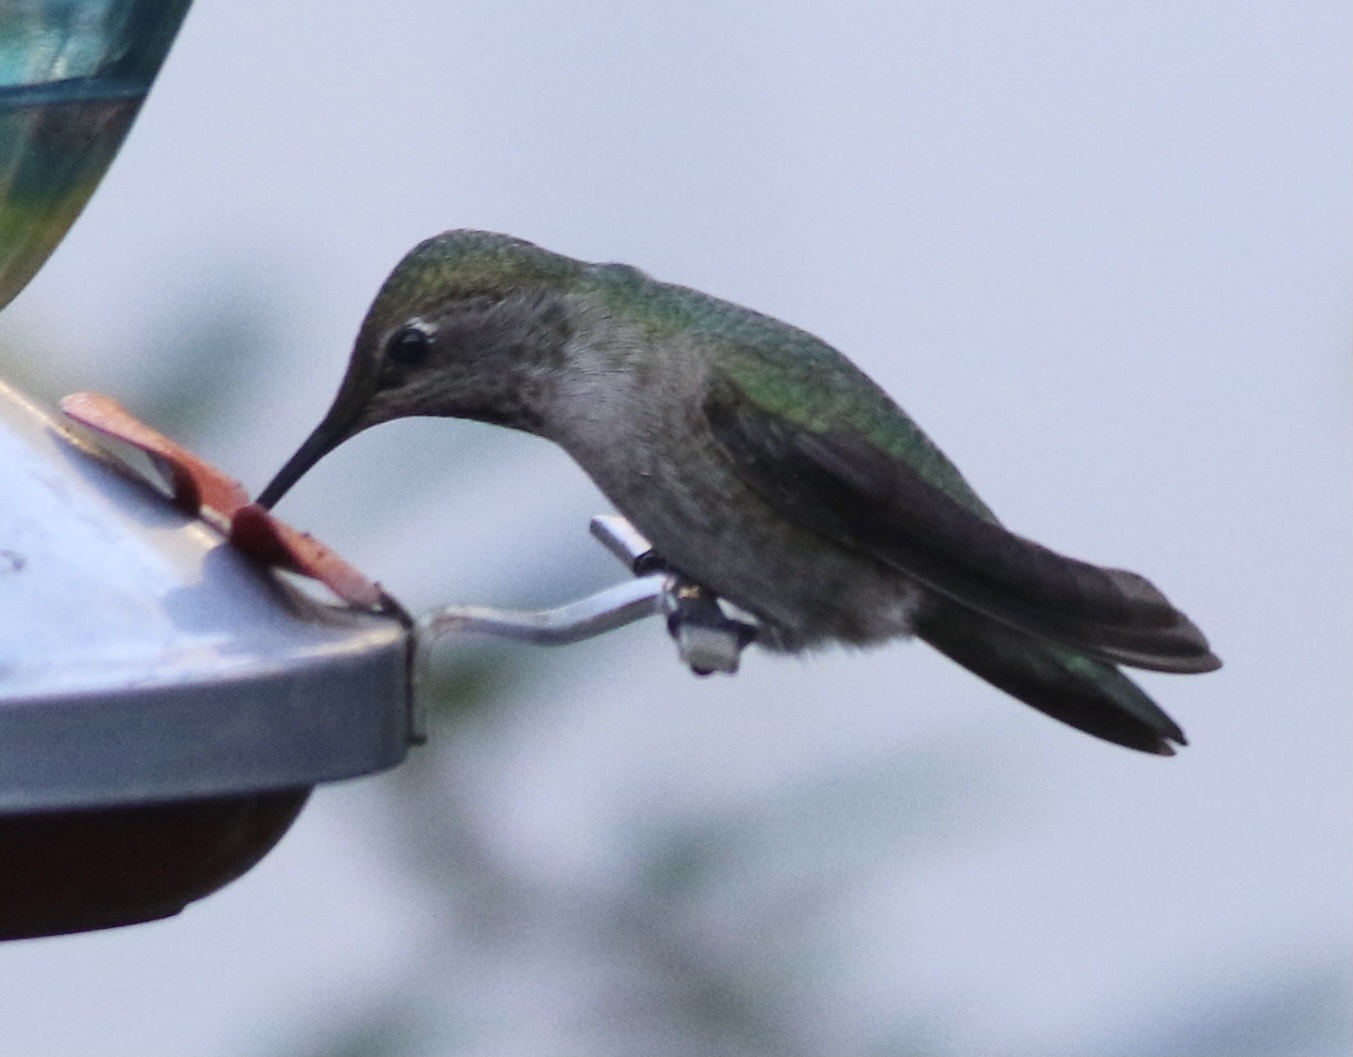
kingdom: Animalia
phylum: Chordata
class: Aves
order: Apodiformes
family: Trochilidae
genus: Calypte
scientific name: Calypte anna
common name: Anna's hummingbird
